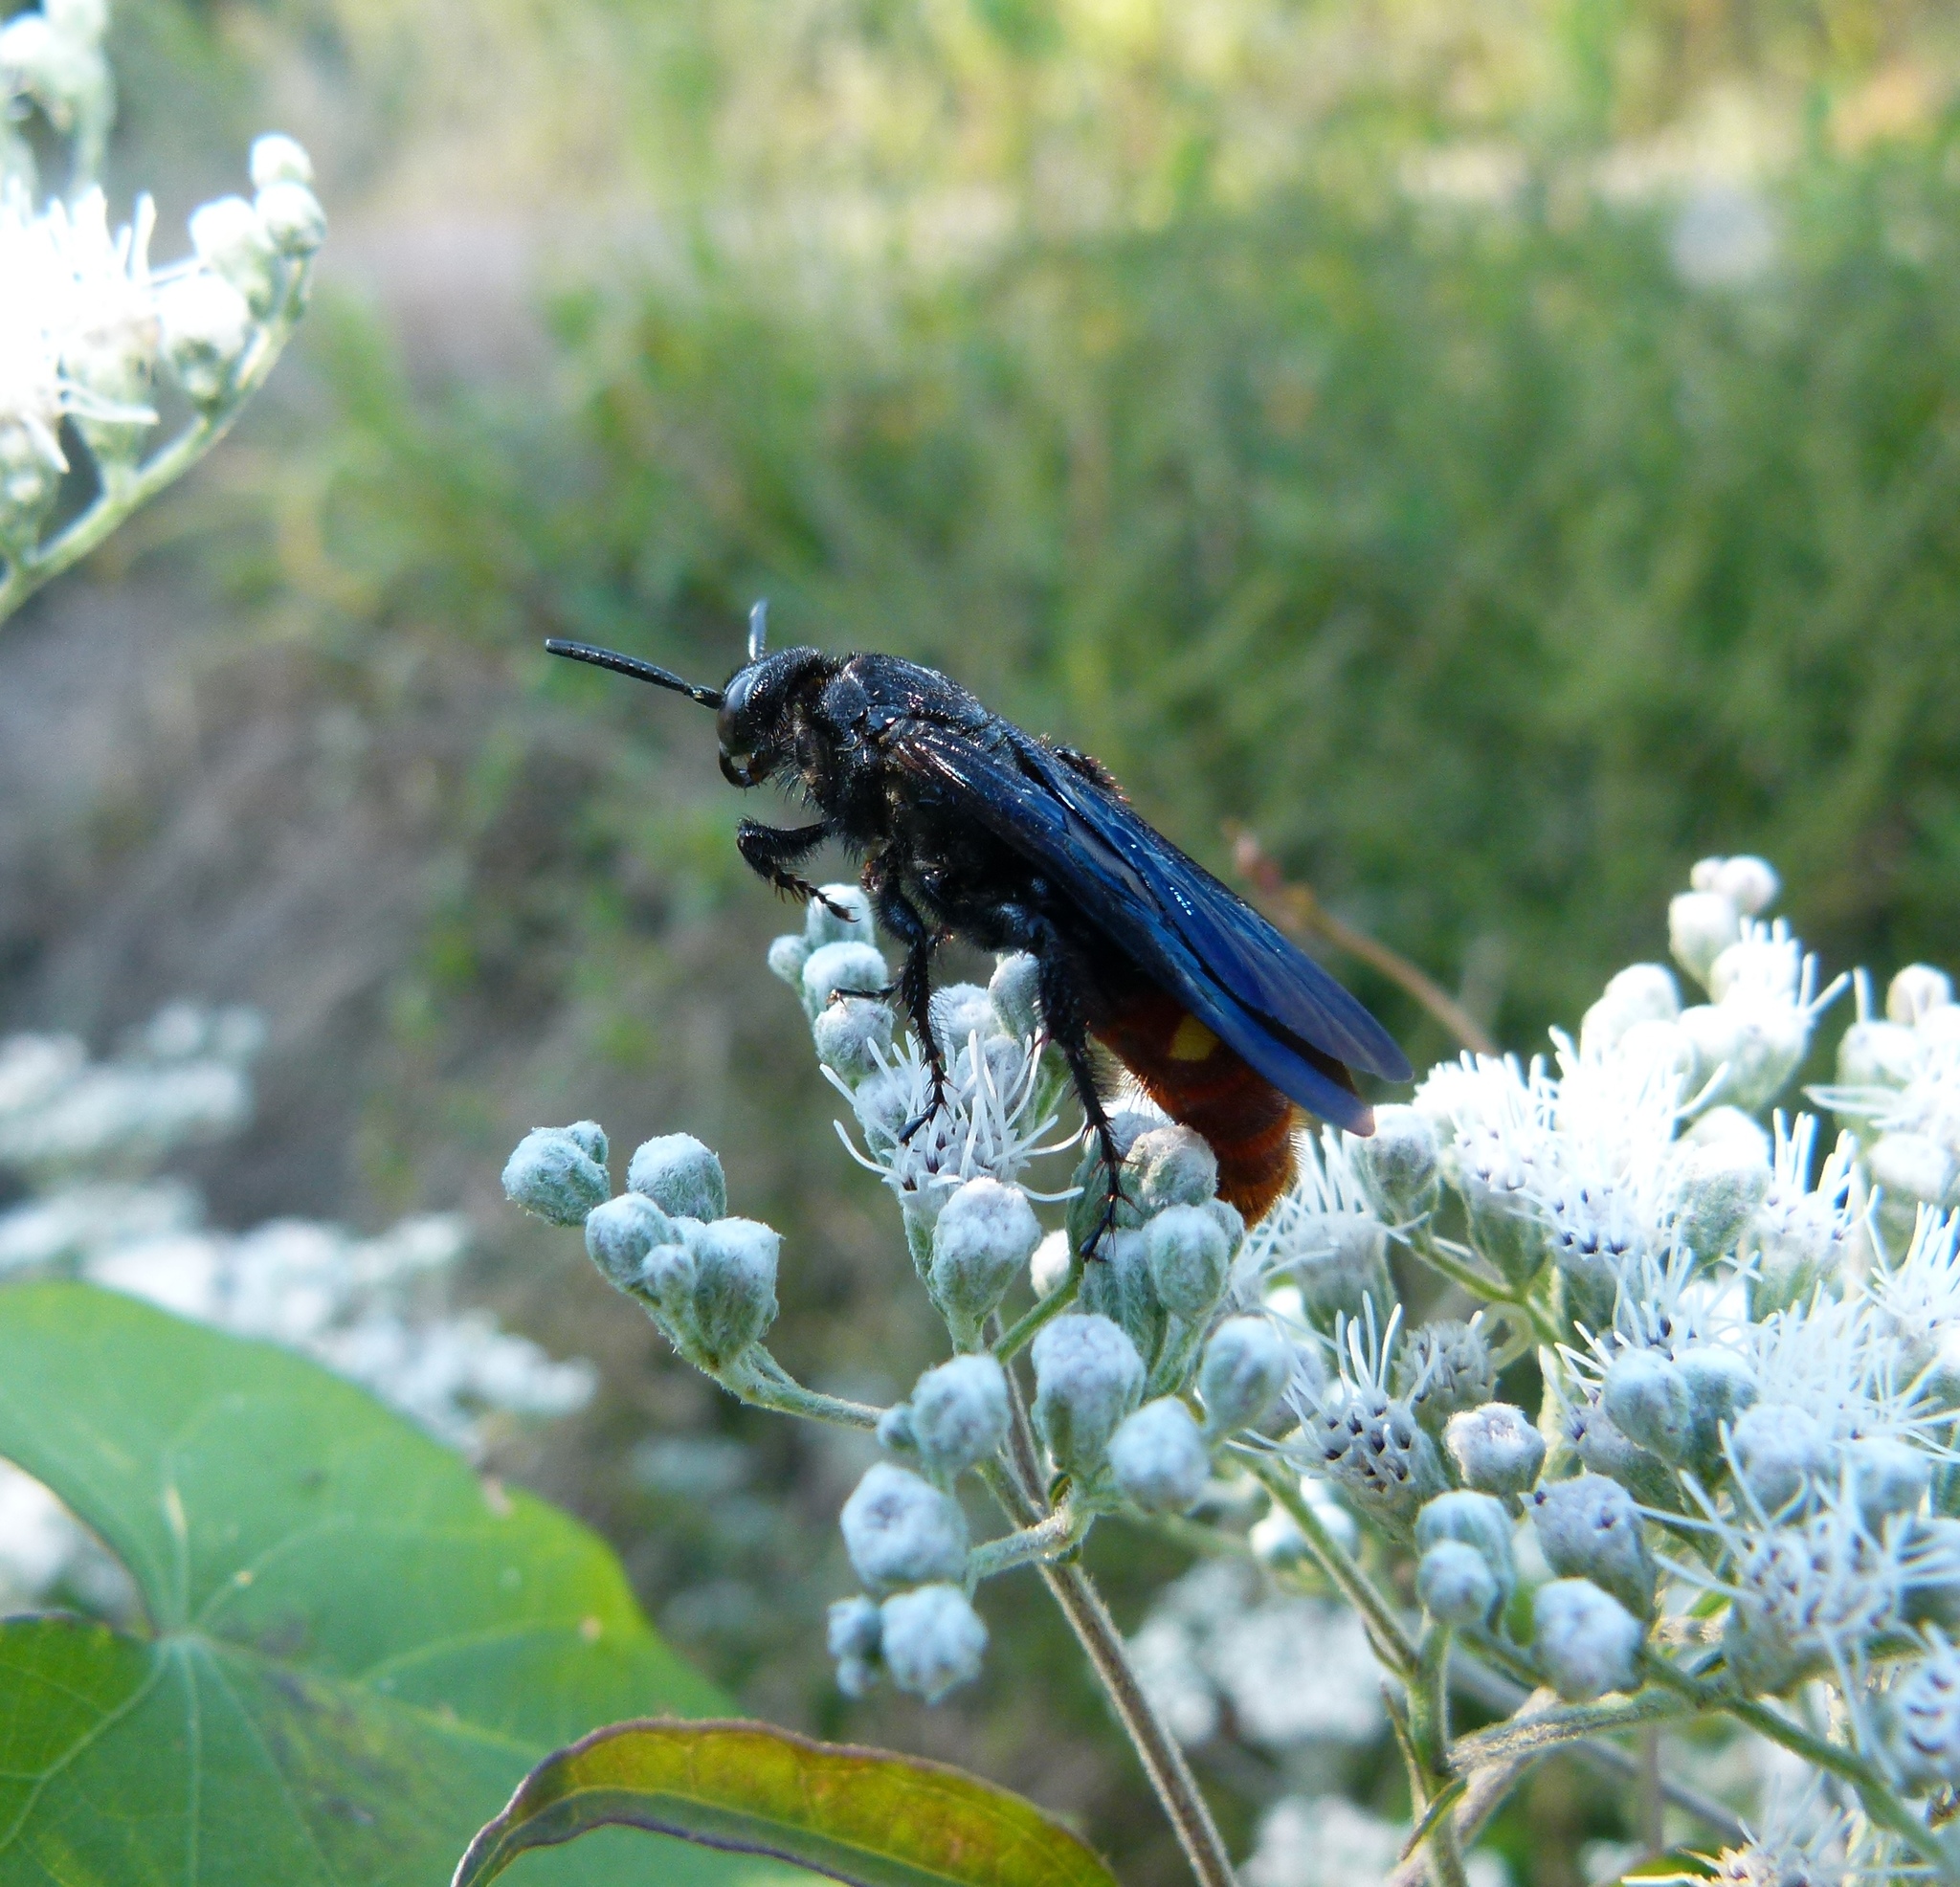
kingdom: Animalia
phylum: Arthropoda
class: Insecta
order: Hymenoptera
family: Scoliidae
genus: Scolia
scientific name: Scolia dubia
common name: Blue-winged scoliid wasp
